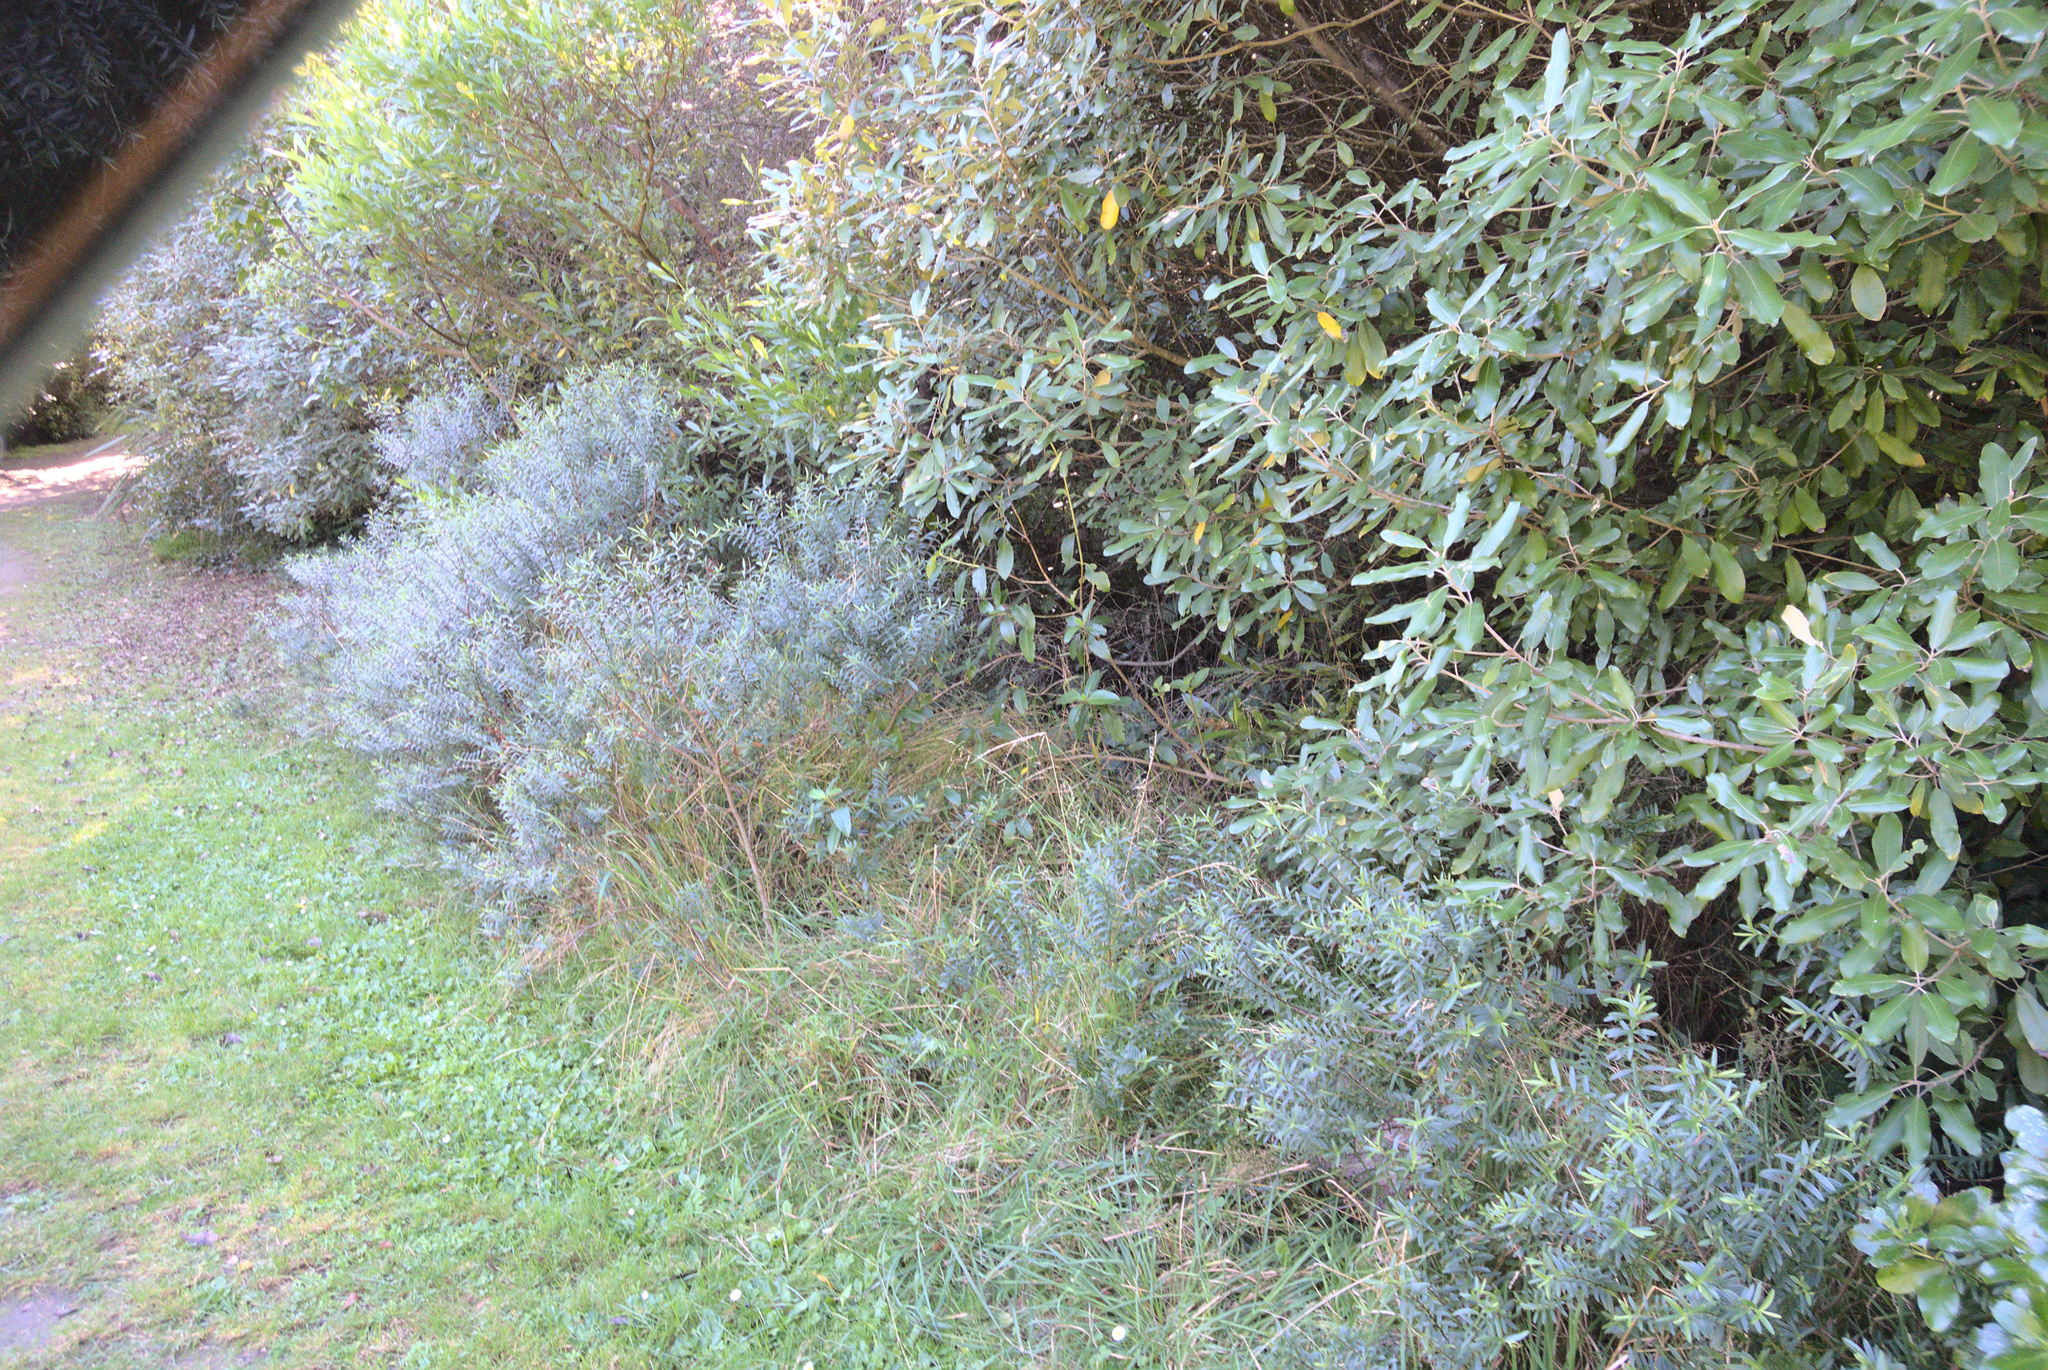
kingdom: Plantae
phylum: Tracheophyta
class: Magnoliopsida
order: Lamiales
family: Plantaginaceae
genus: Veronica
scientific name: Veronica strictissima
